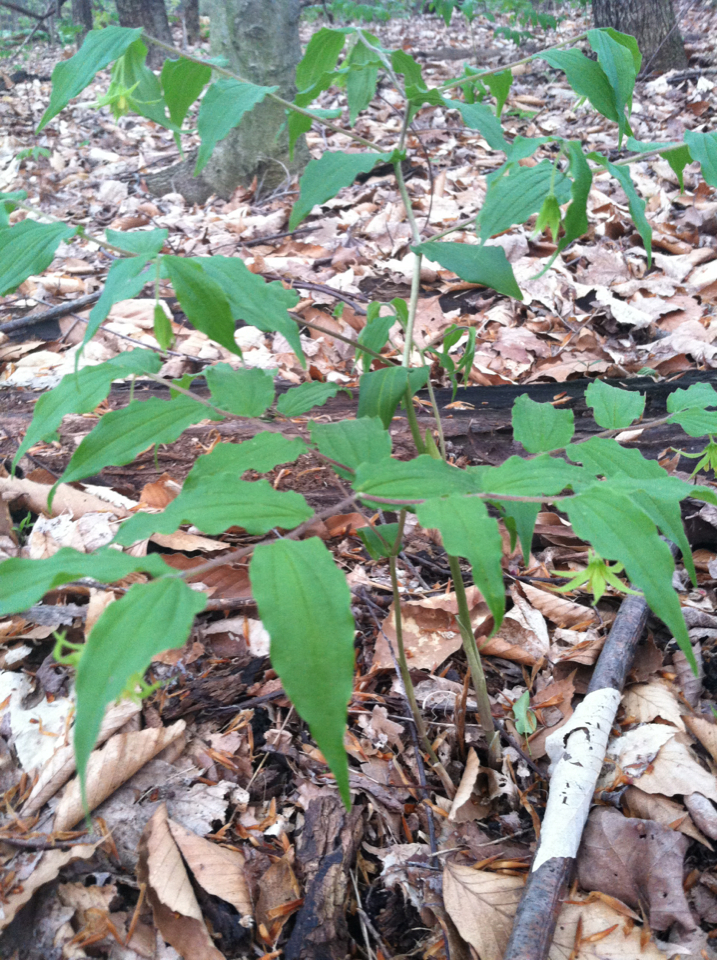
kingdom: Plantae
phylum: Tracheophyta
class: Liliopsida
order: Liliales
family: Liliaceae
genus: Prosartes
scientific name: Prosartes lanuginosa
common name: Hairy mandarin
